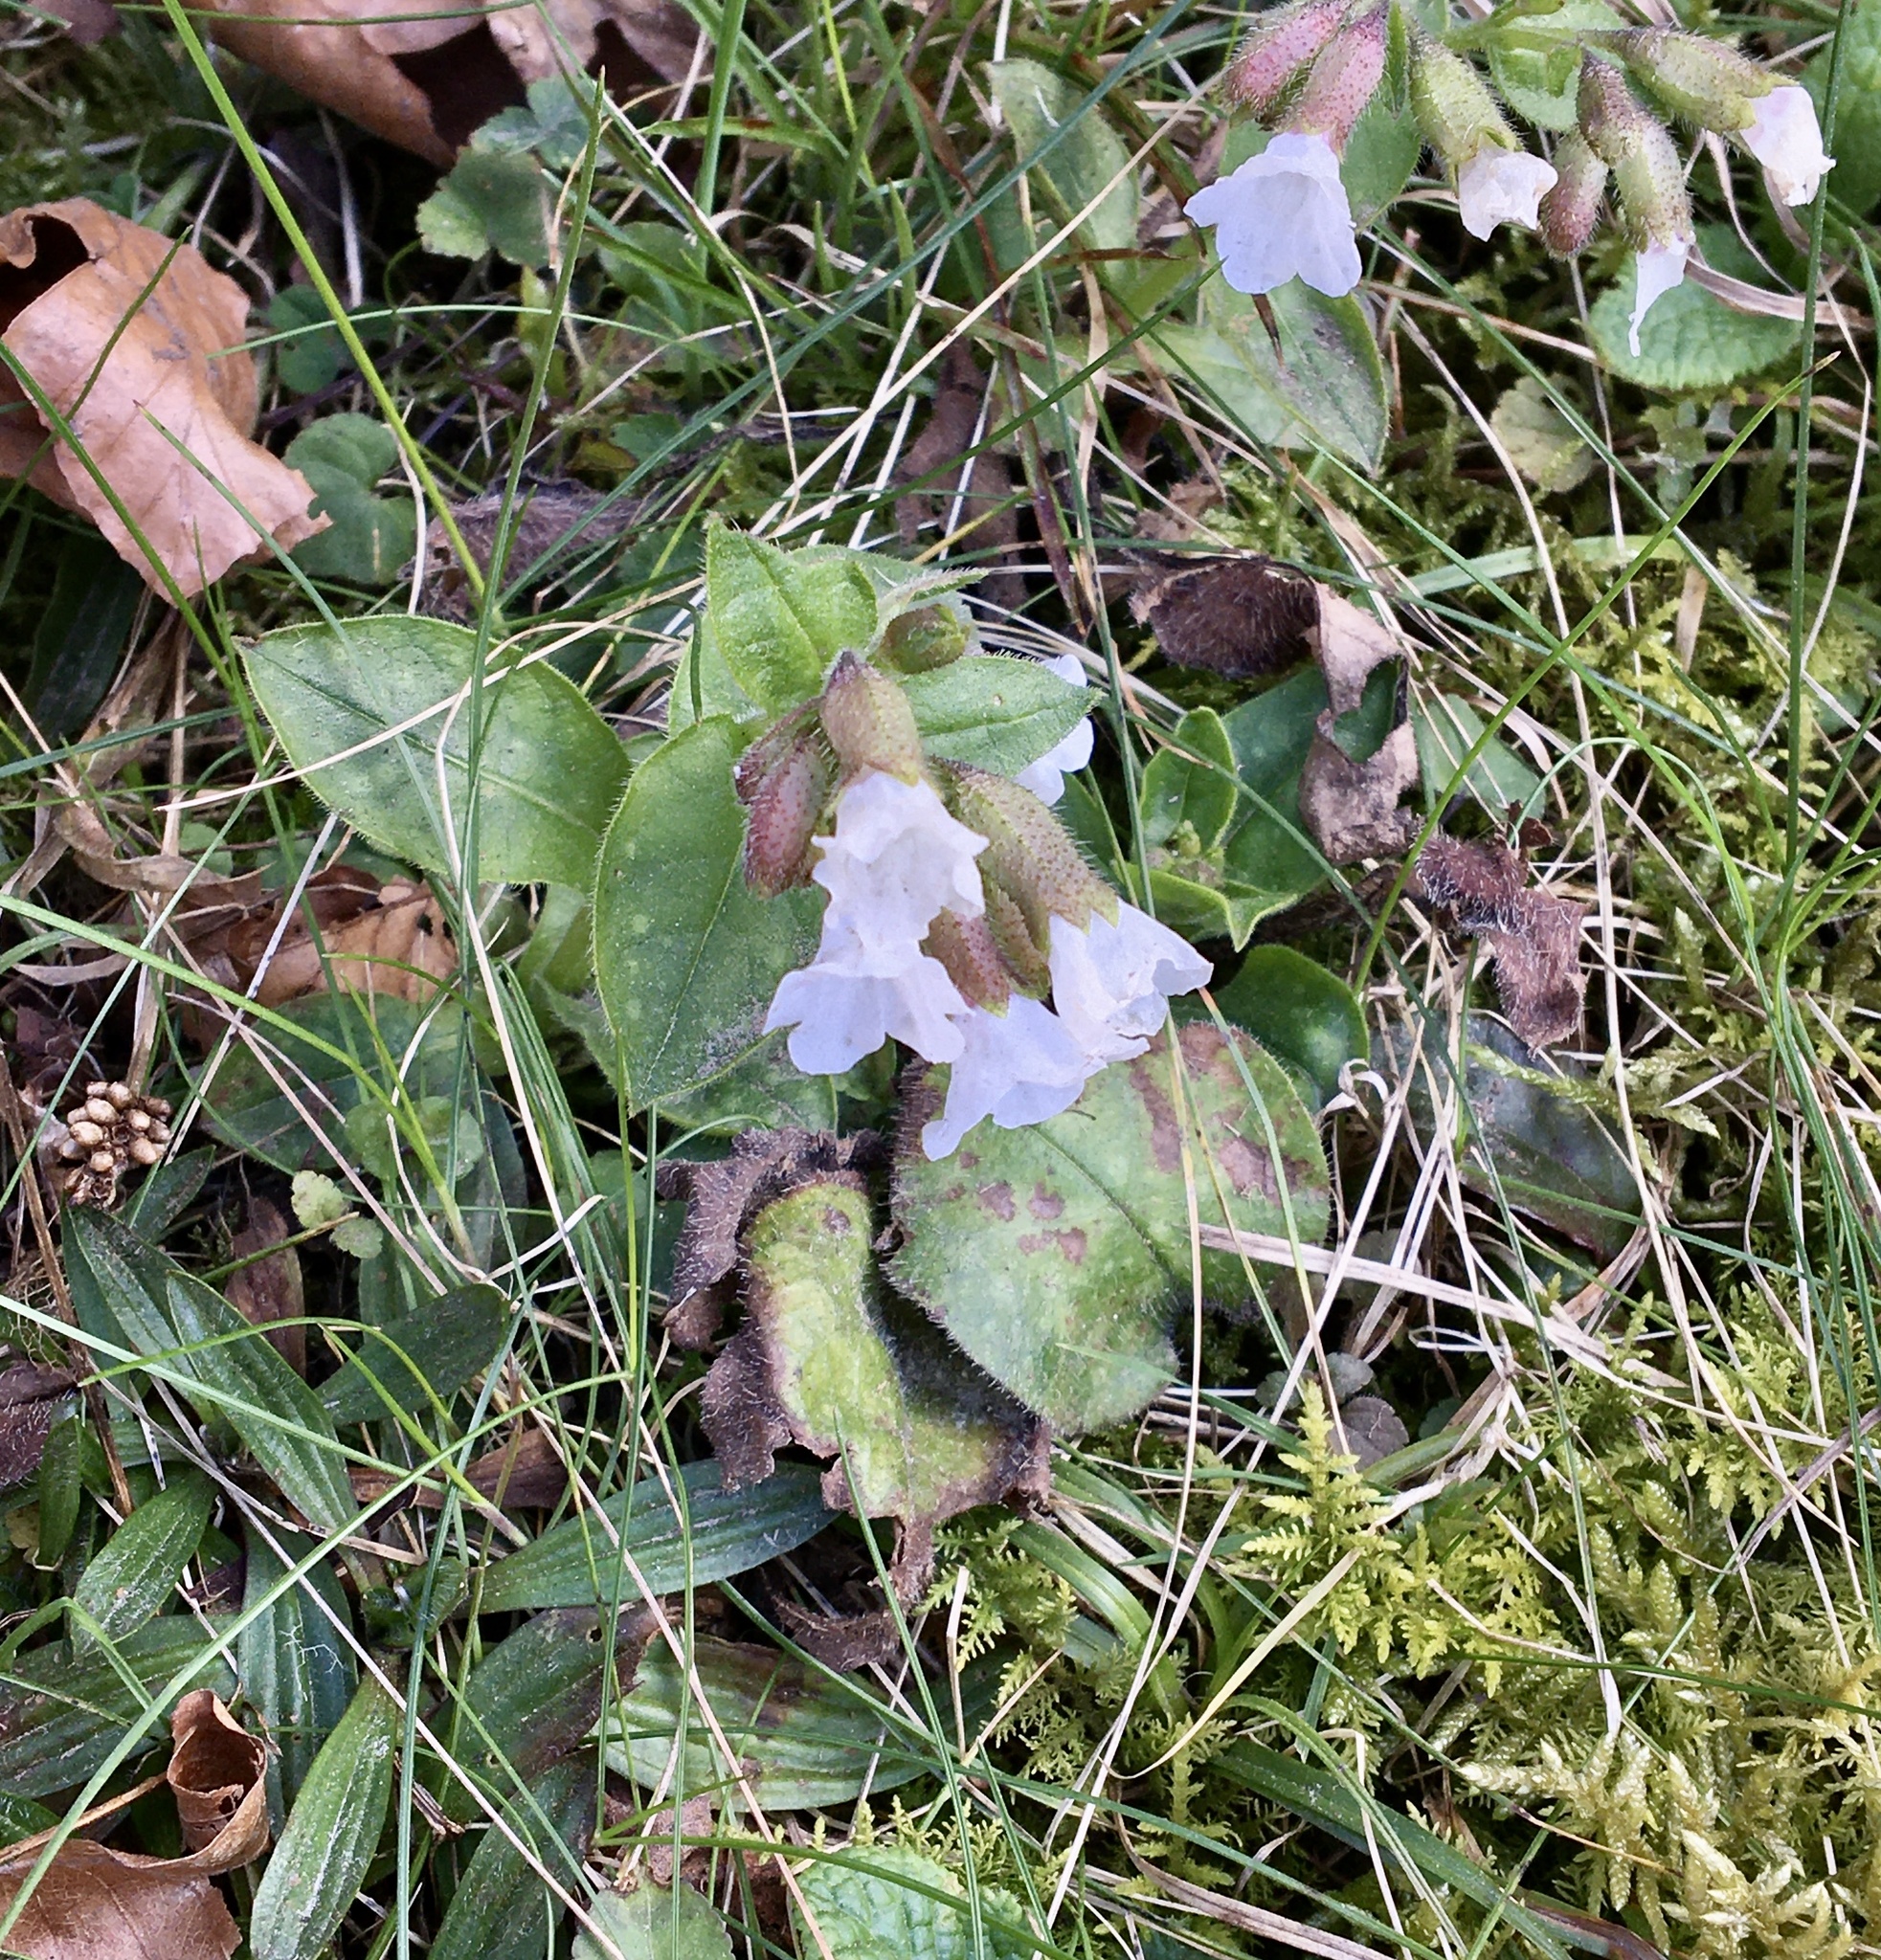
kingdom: Plantae
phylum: Tracheophyta
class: Magnoliopsida
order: Boraginales
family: Boraginaceae
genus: Pulmonaria
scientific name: Pulmonaria officinalis
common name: Lungwort
